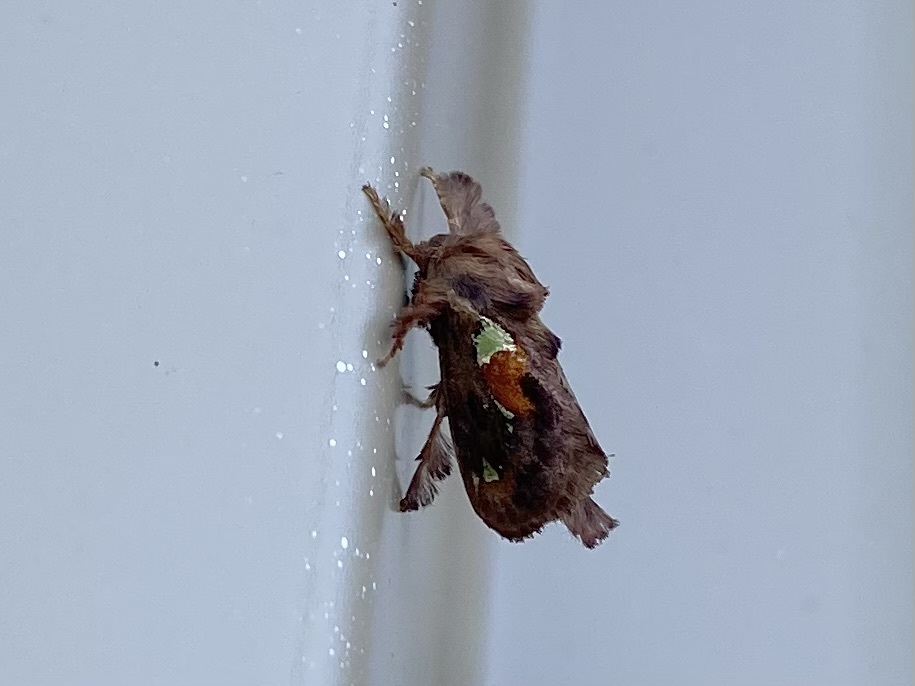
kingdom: Animalia
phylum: Arthropoda
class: Insecta
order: Lepidoptera
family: Limacodidae
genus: Euclea
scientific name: Euclea delphinii
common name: Spiny oak-slug moth
